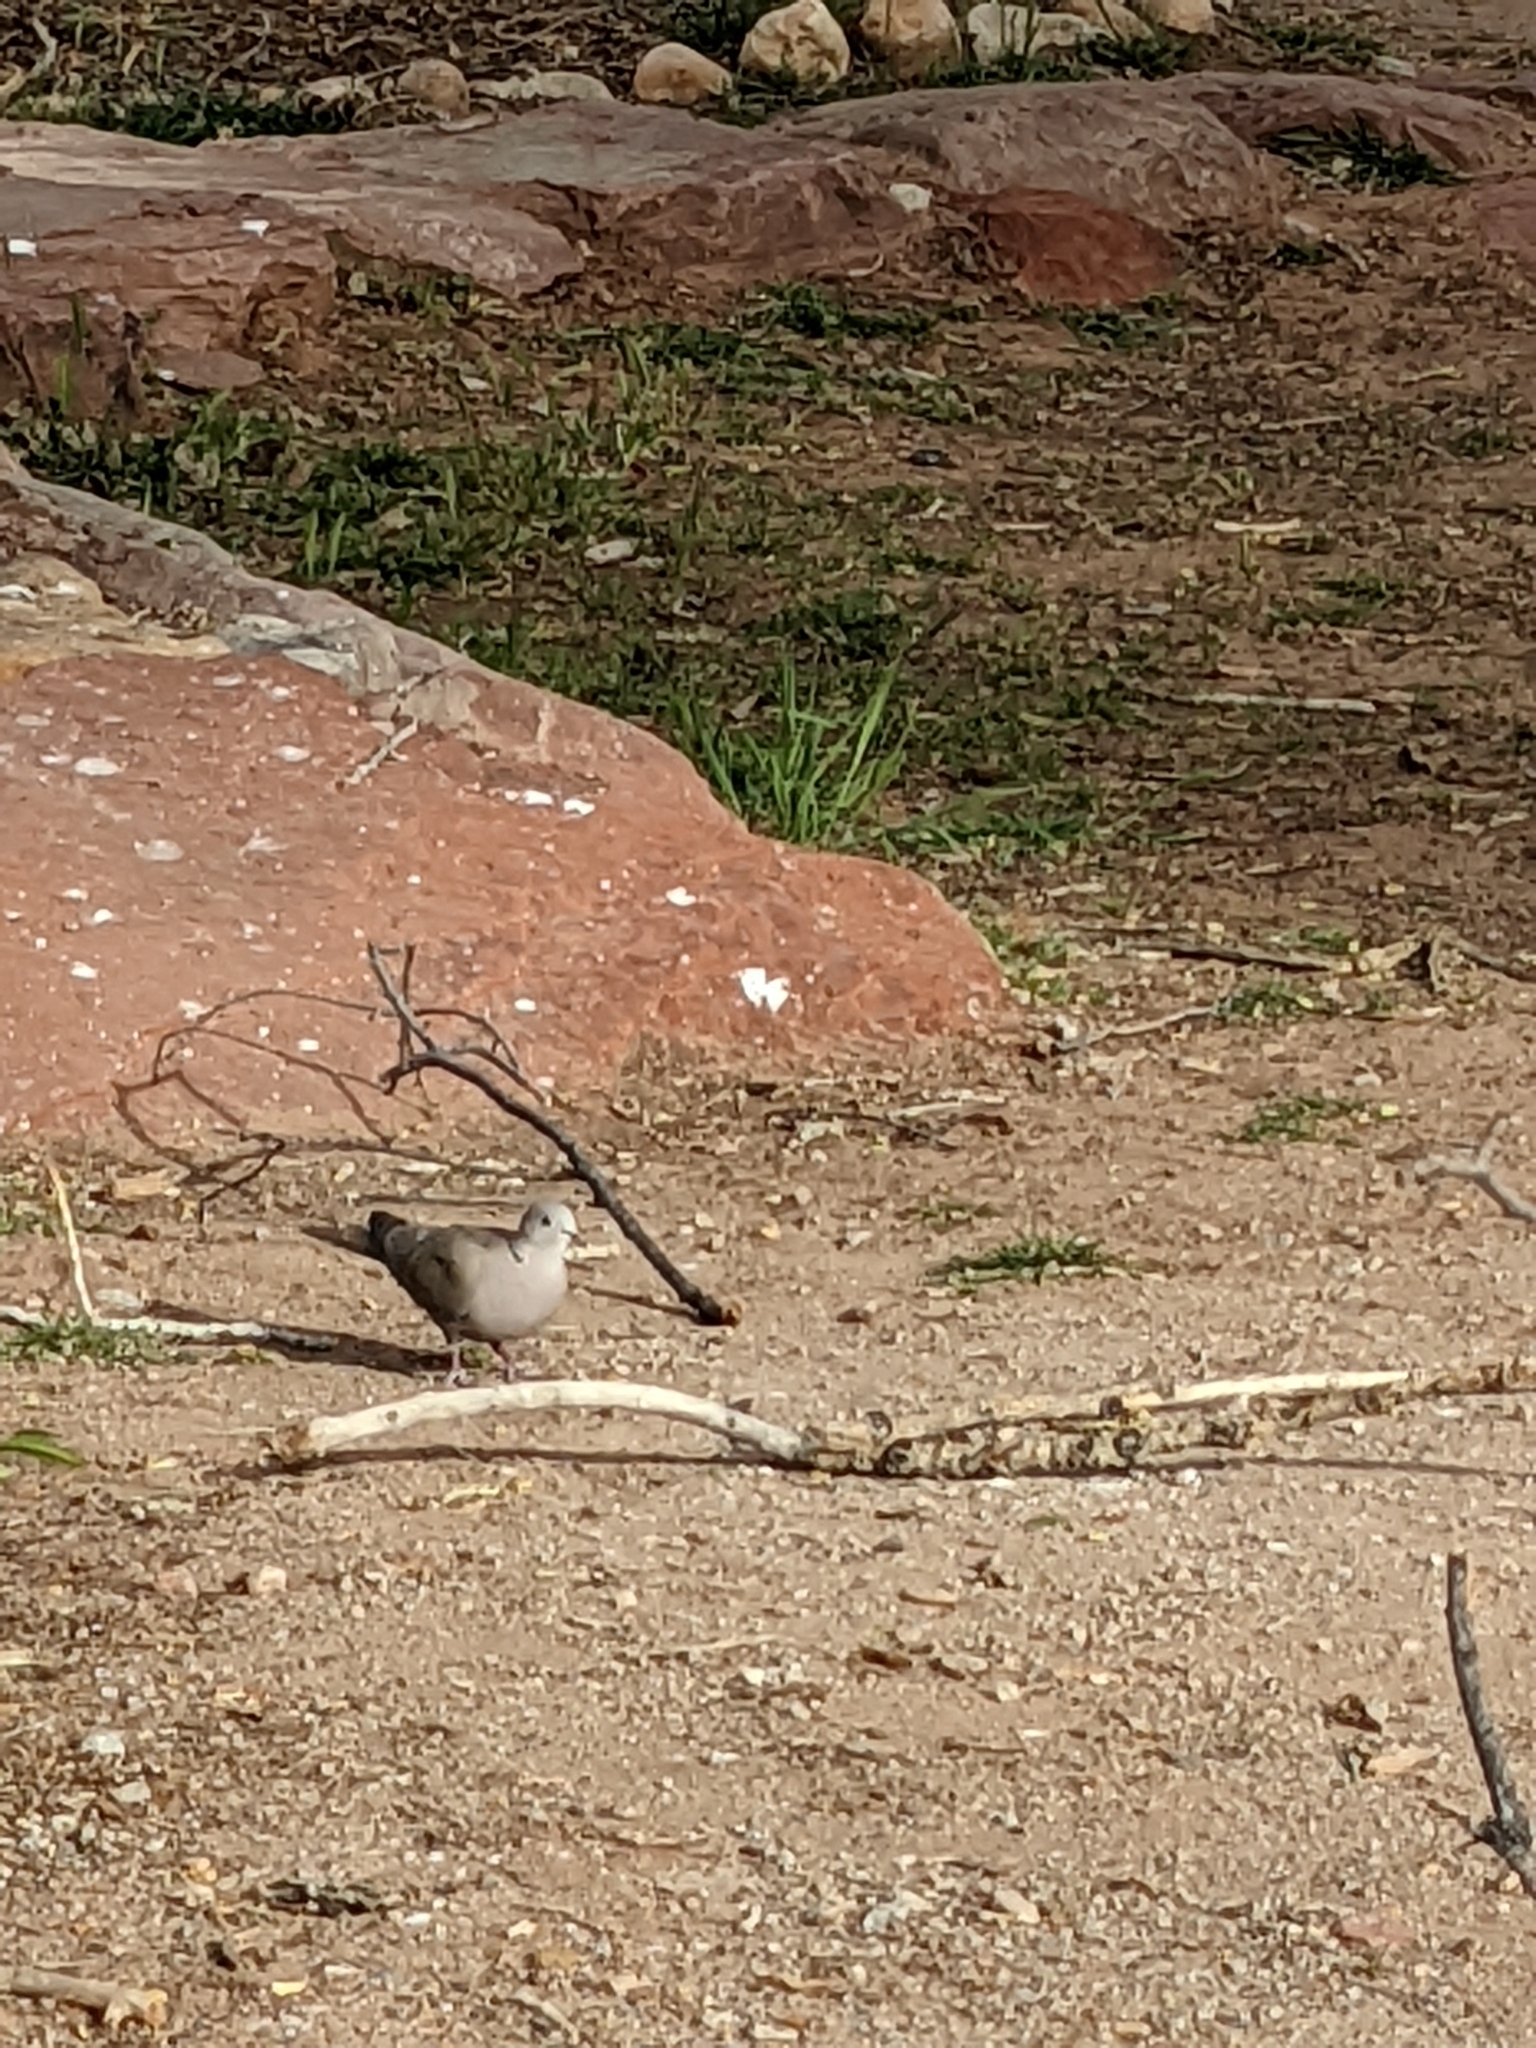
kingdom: Animalia
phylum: Chordata
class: Aves
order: Columbiformes
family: Columbidae
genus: Streptopelia
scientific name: Streptopelia decaocto
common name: Eurasian collared dove
